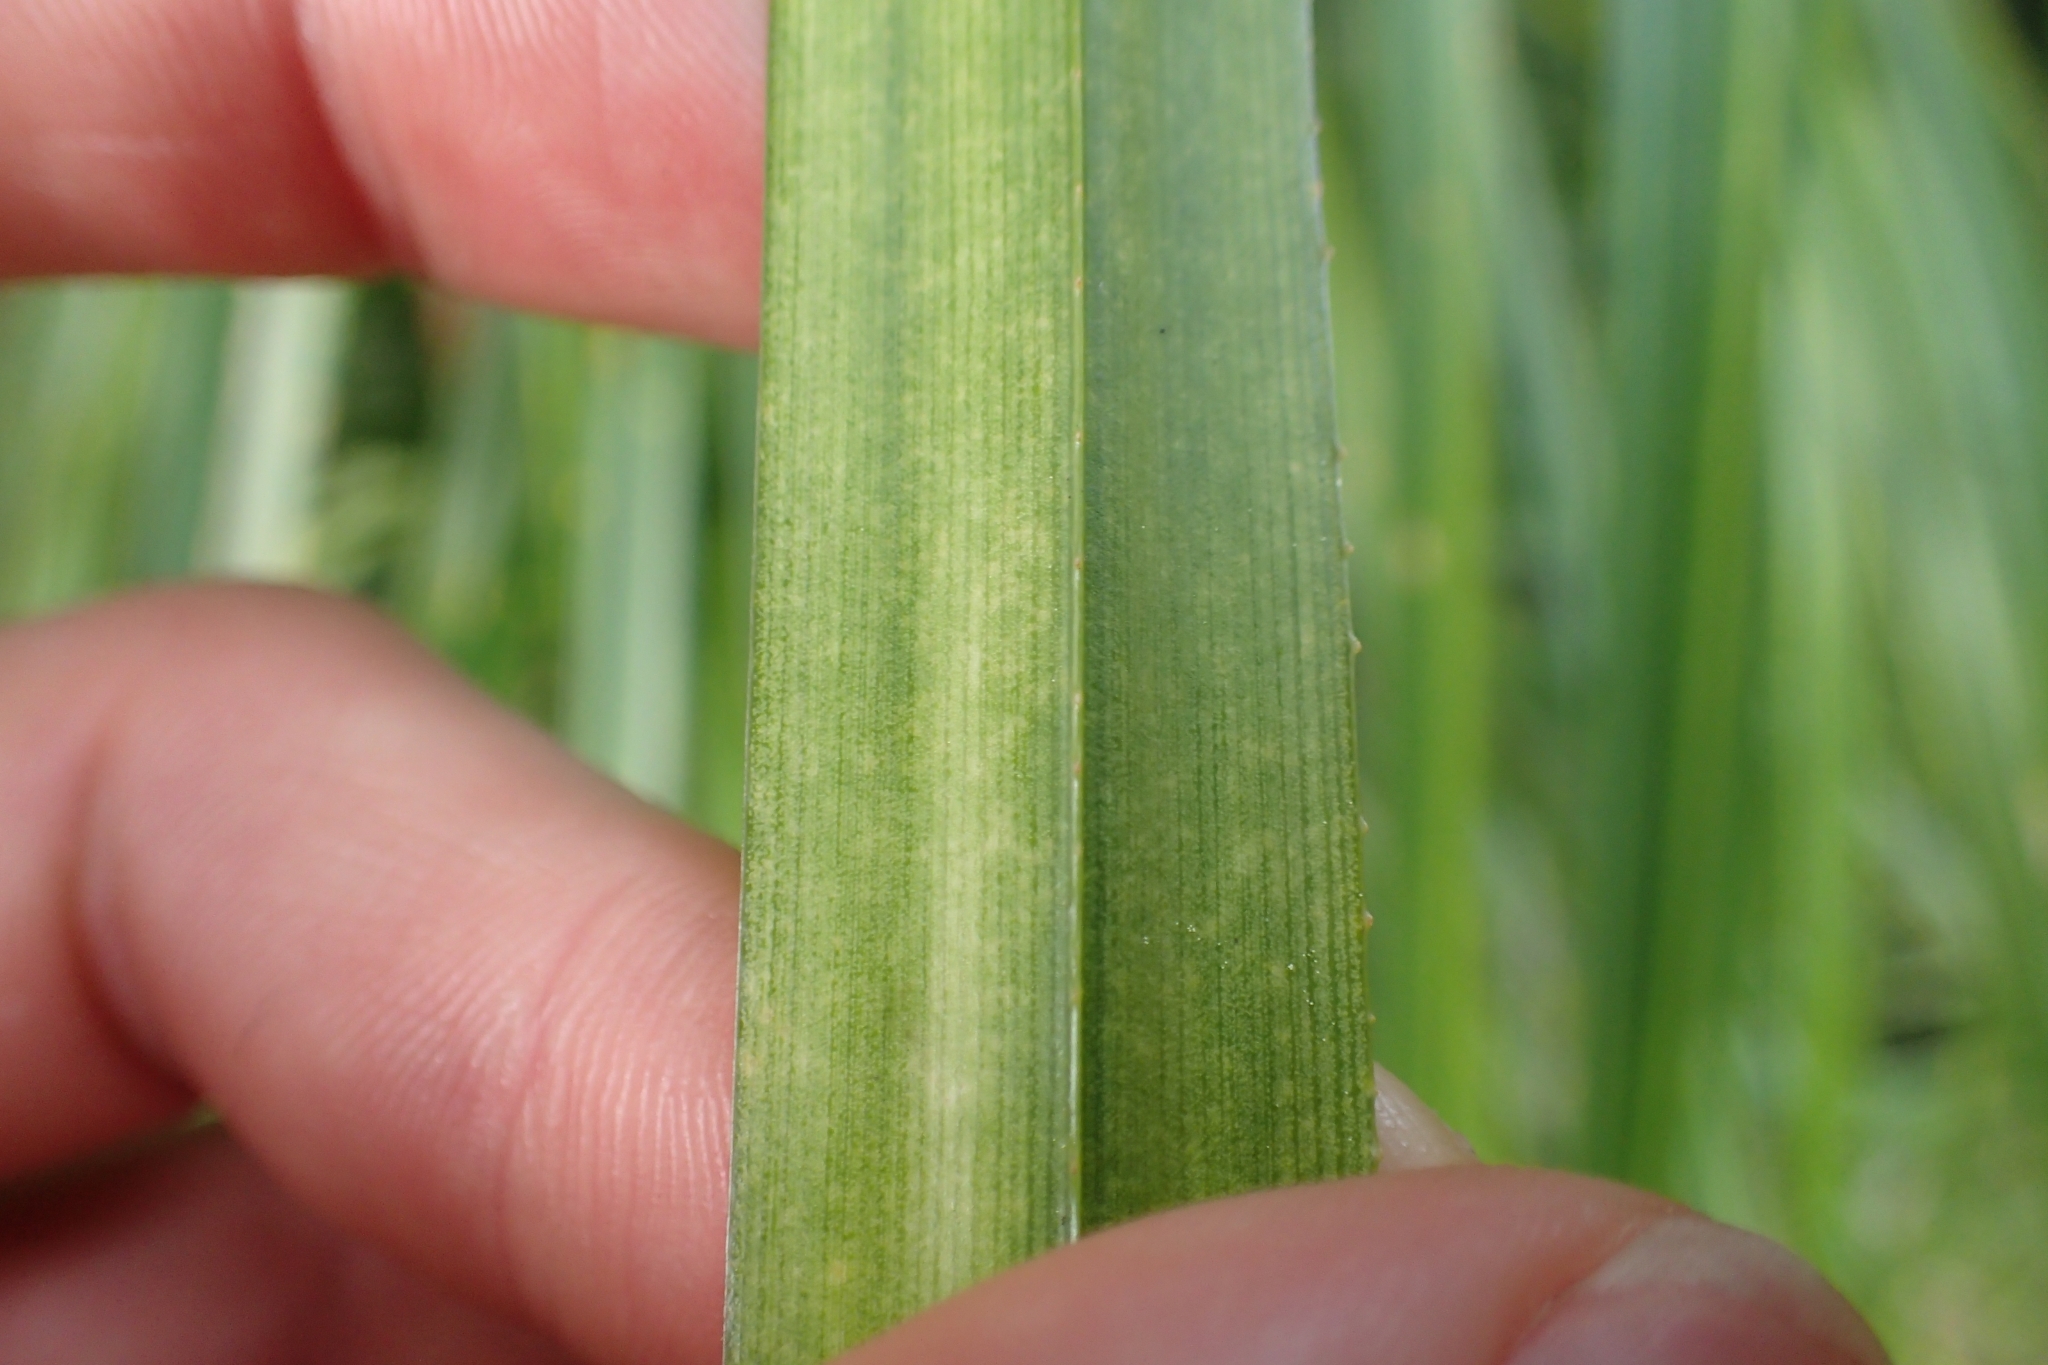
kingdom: Plantae
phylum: Tracheophyta
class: Liliopsida
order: Pandanales
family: Pandanaceae
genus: Freycinetia
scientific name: Freycinetia banksii
